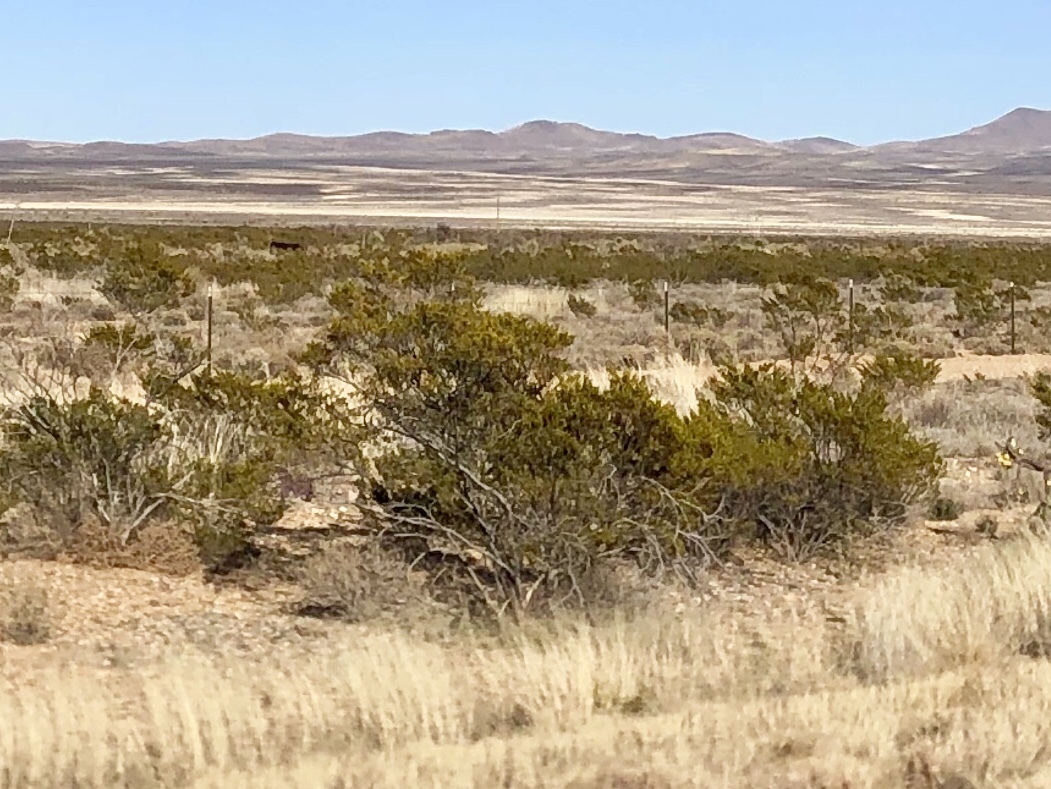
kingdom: Plantae
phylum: Tracheophyta
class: Magnoliopsida
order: Zygophyllales
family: Zygophyllaceae
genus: Larrea
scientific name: Larrea tridentata
